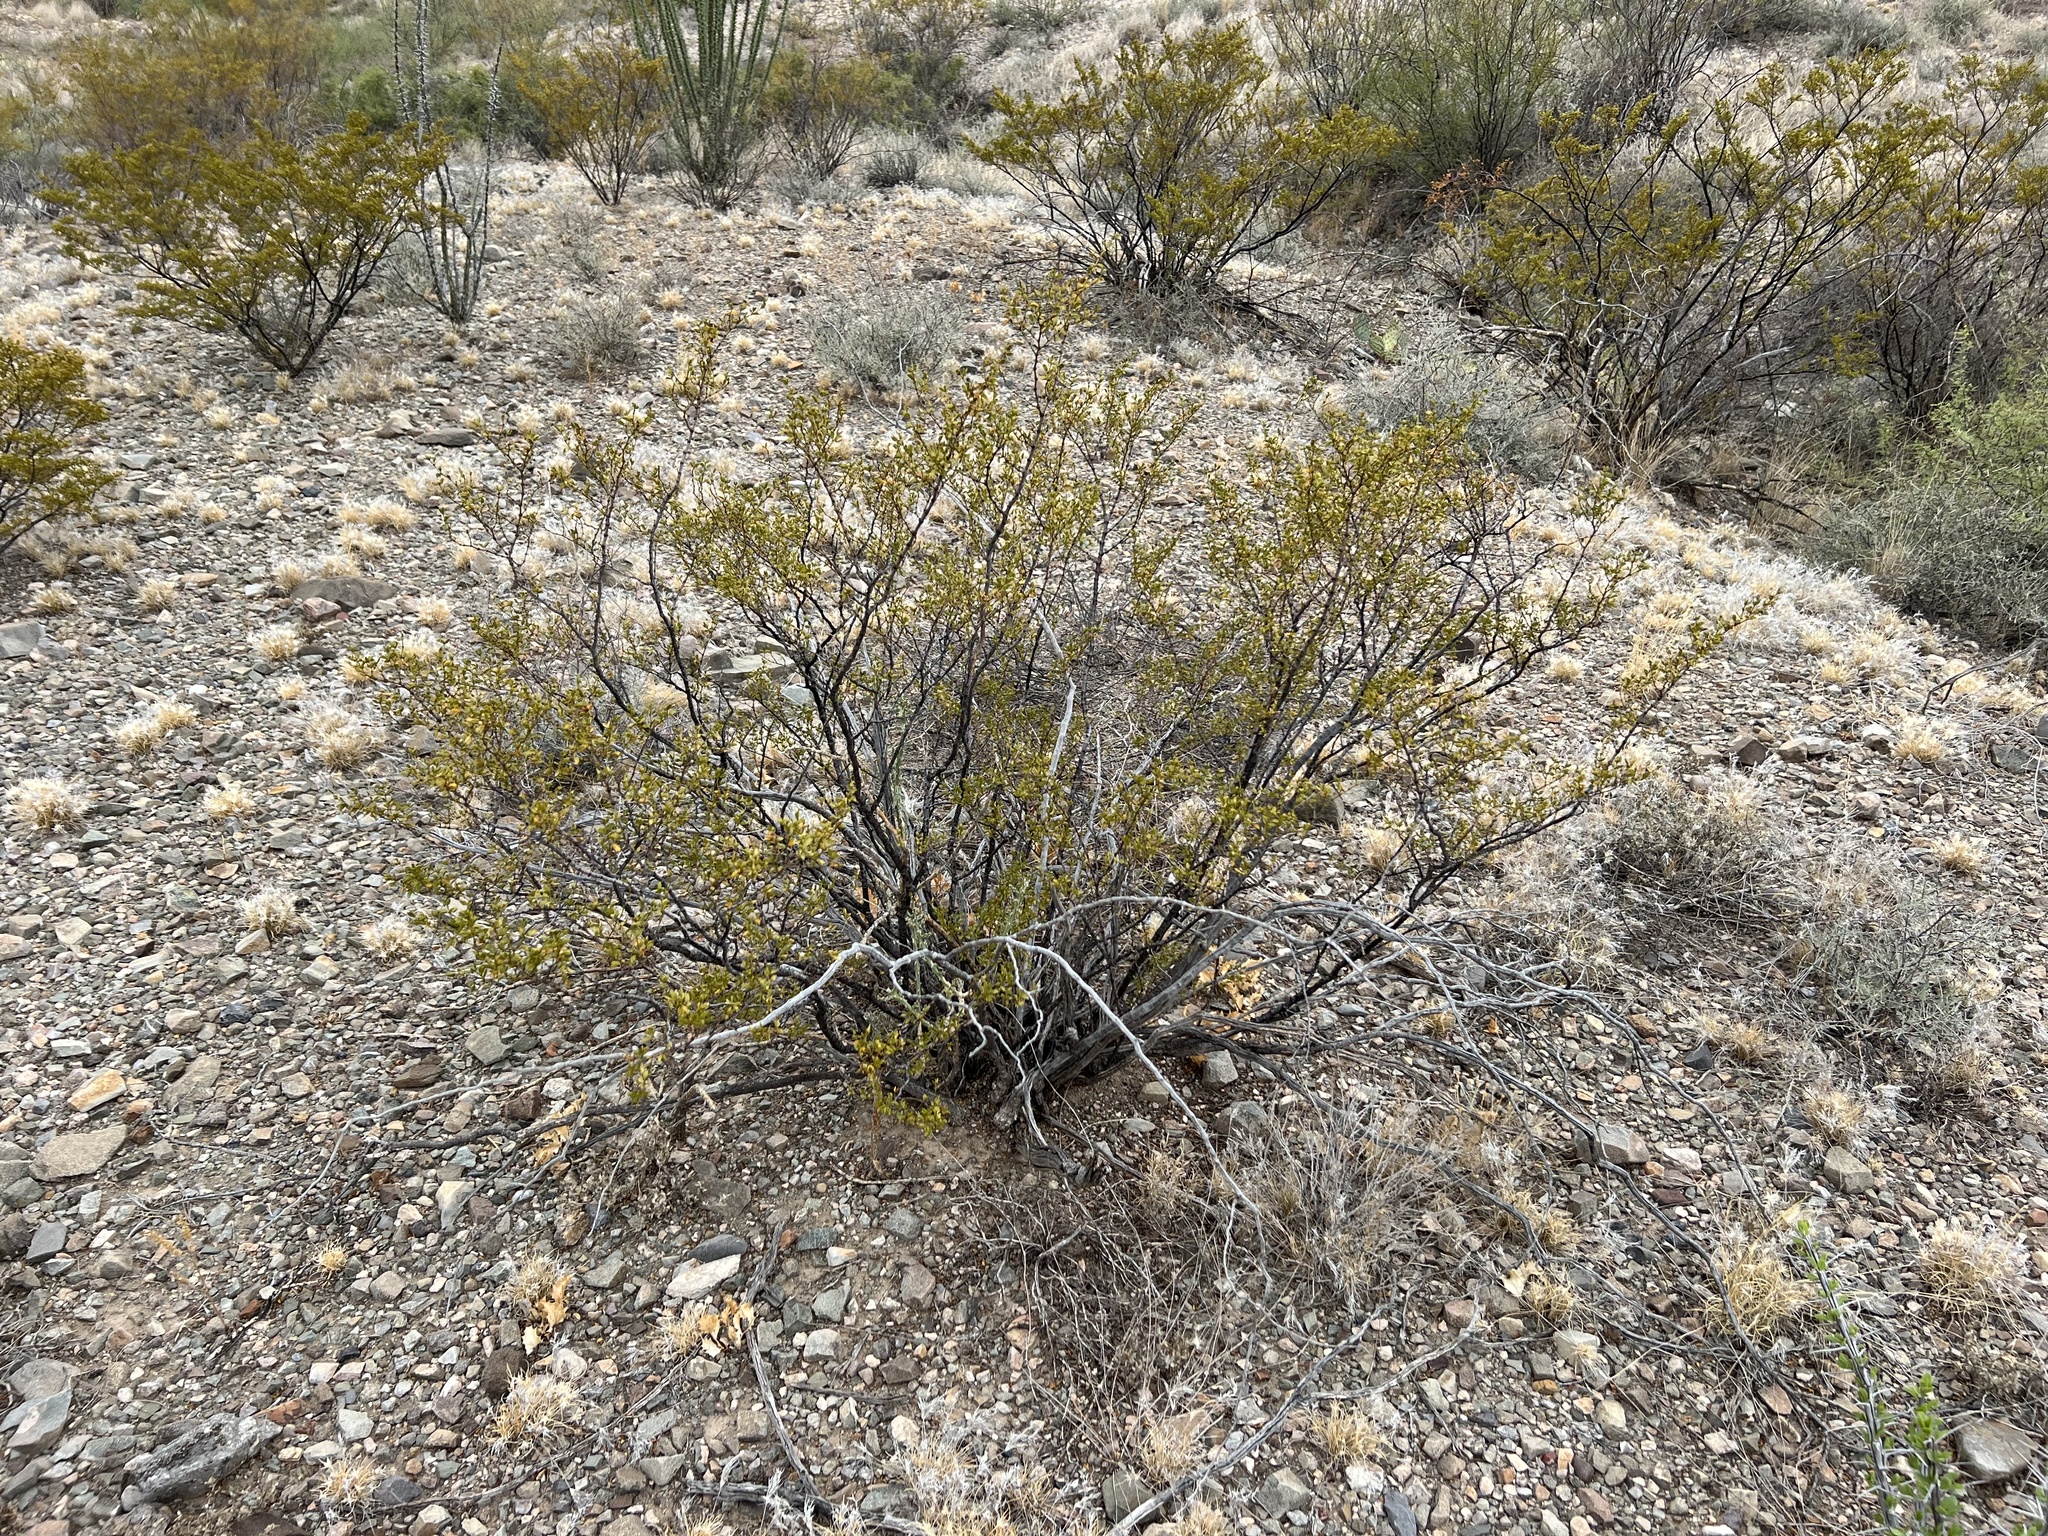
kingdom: Plantae
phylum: Tracheophyta
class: Magnoliopsida
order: Zygophyllales
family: Zygophyllaceae
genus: Larrea
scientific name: Larrea tridentata
